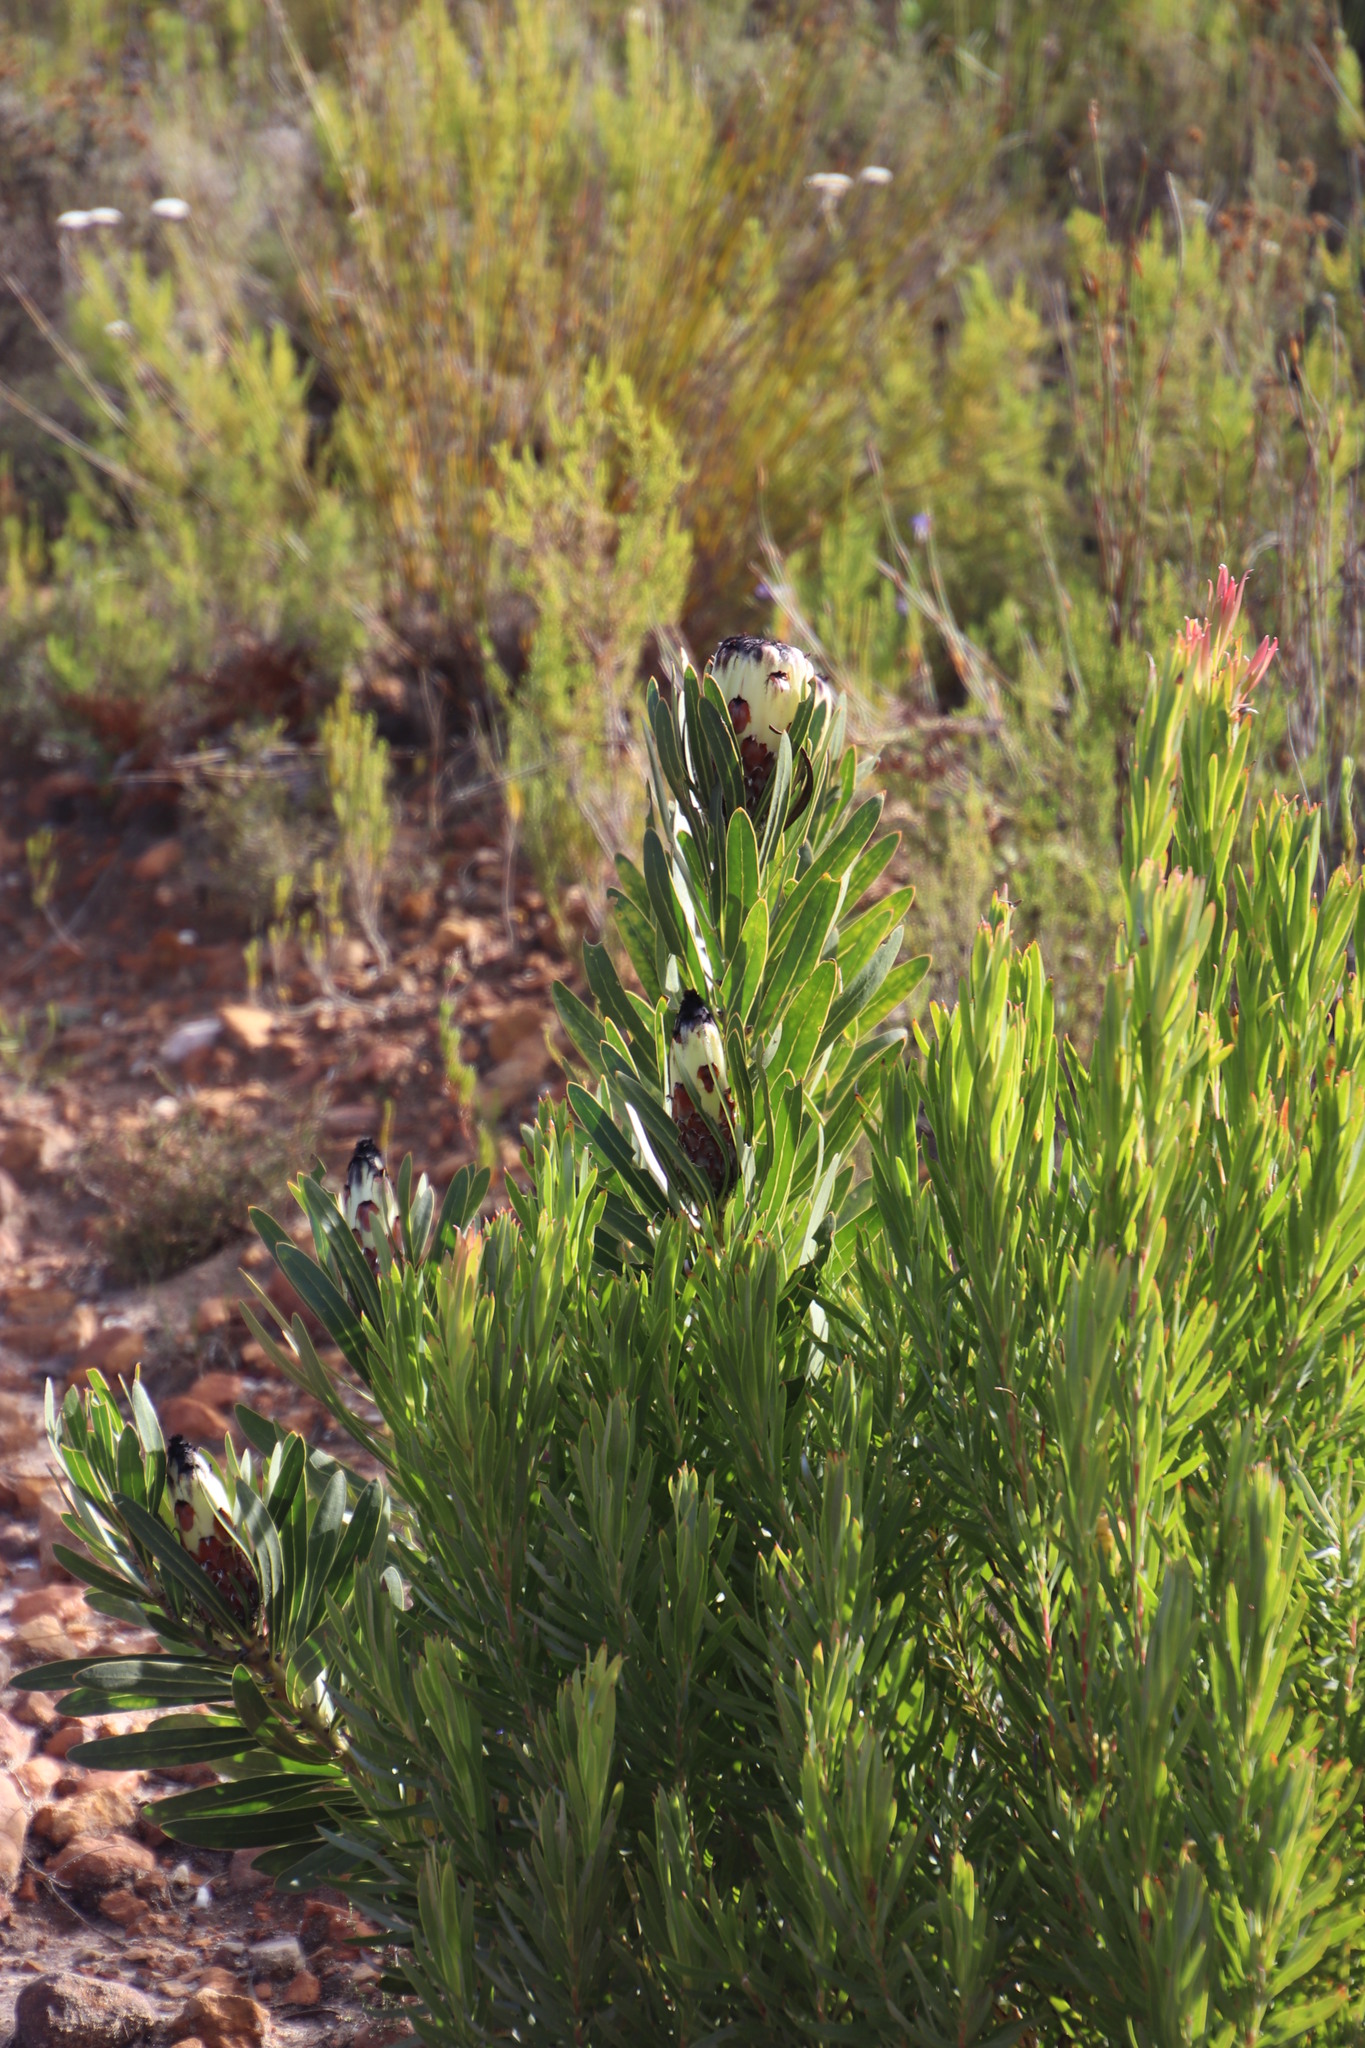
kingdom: Plantae
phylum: Tracheophyta
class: Magnoliopsida
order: Proteales
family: Proteaceae
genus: Protea
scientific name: Protea lepidocarpodendron
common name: Black-bearded protea
